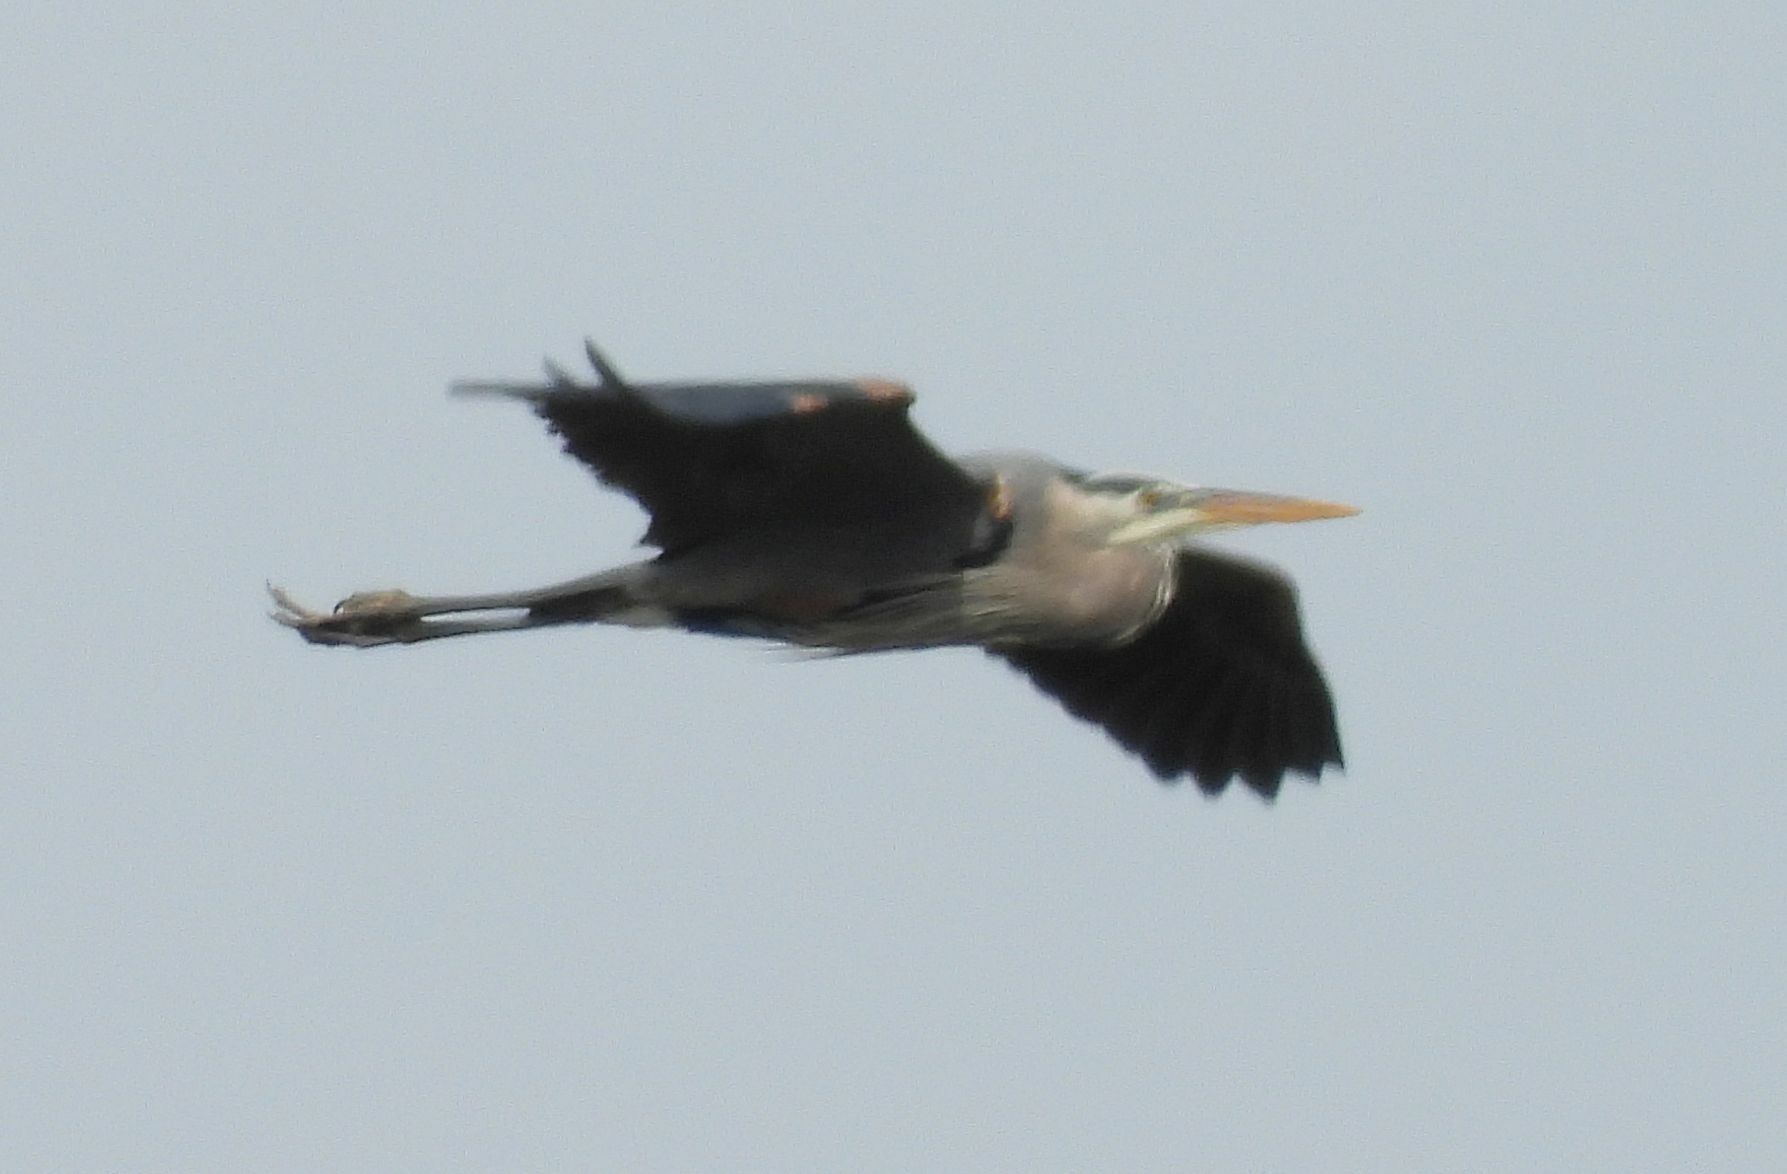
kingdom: Animalia
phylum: Chordata
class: Aves
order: Pelecaniformes
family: Ardeidae
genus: Ardea
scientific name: Ardea herodias
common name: Great blue heron
